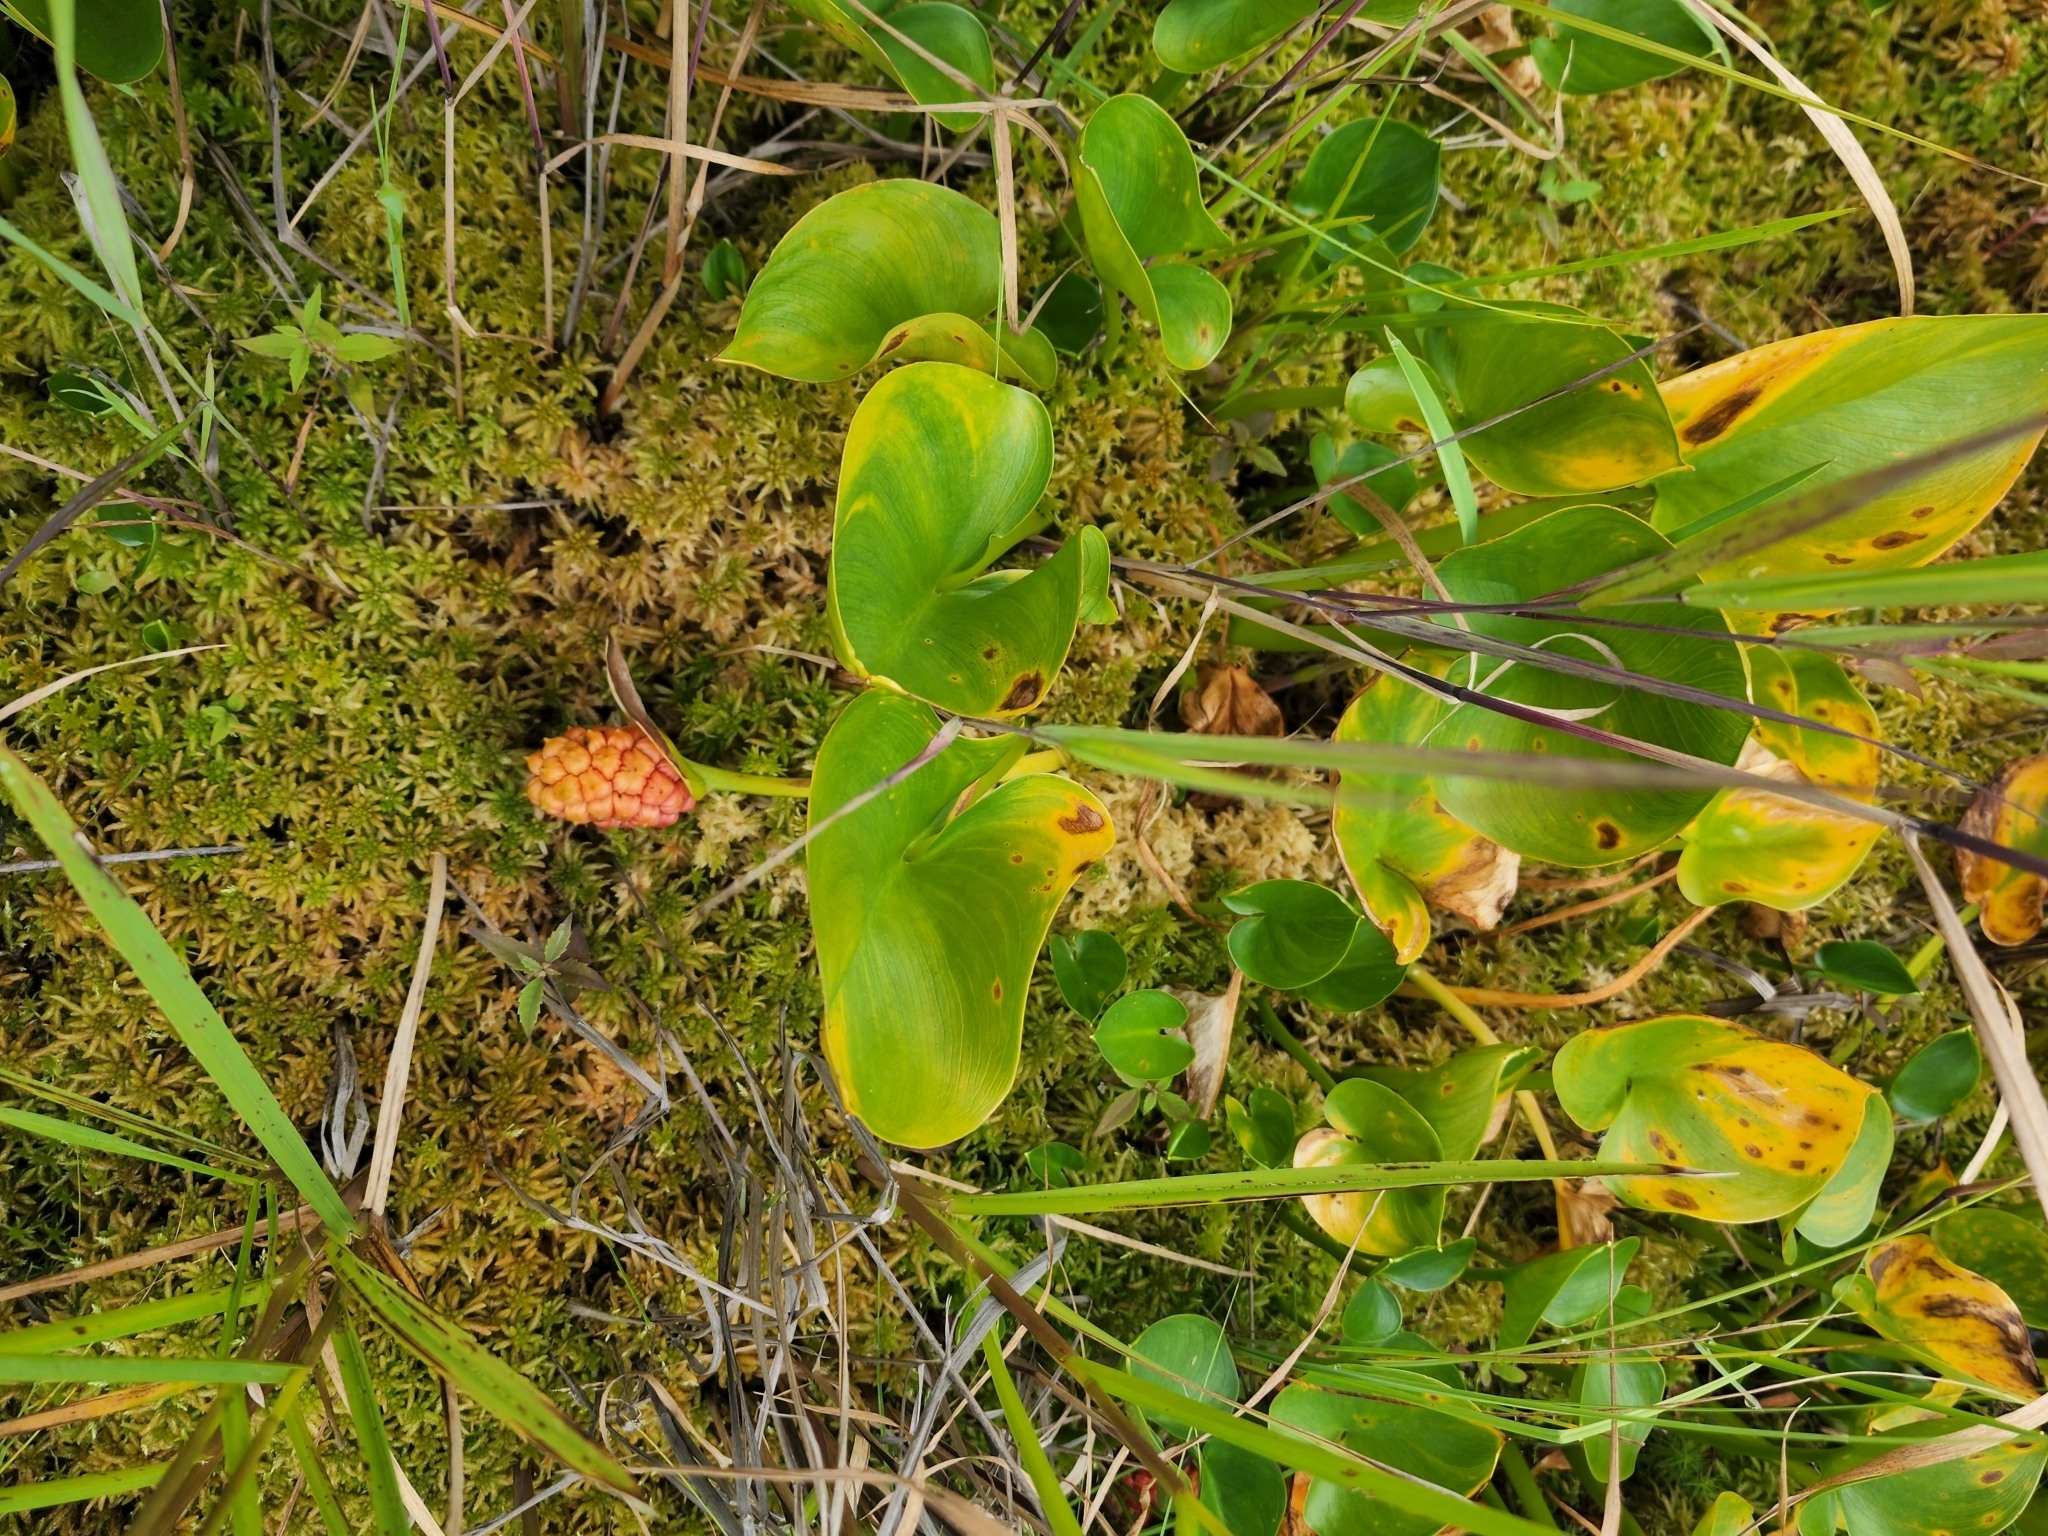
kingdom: Plantae
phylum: Tracheophyta
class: Liliopsida
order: Alismatales
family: Araceae
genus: Calla
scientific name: Calla palustris
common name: Bog arum
